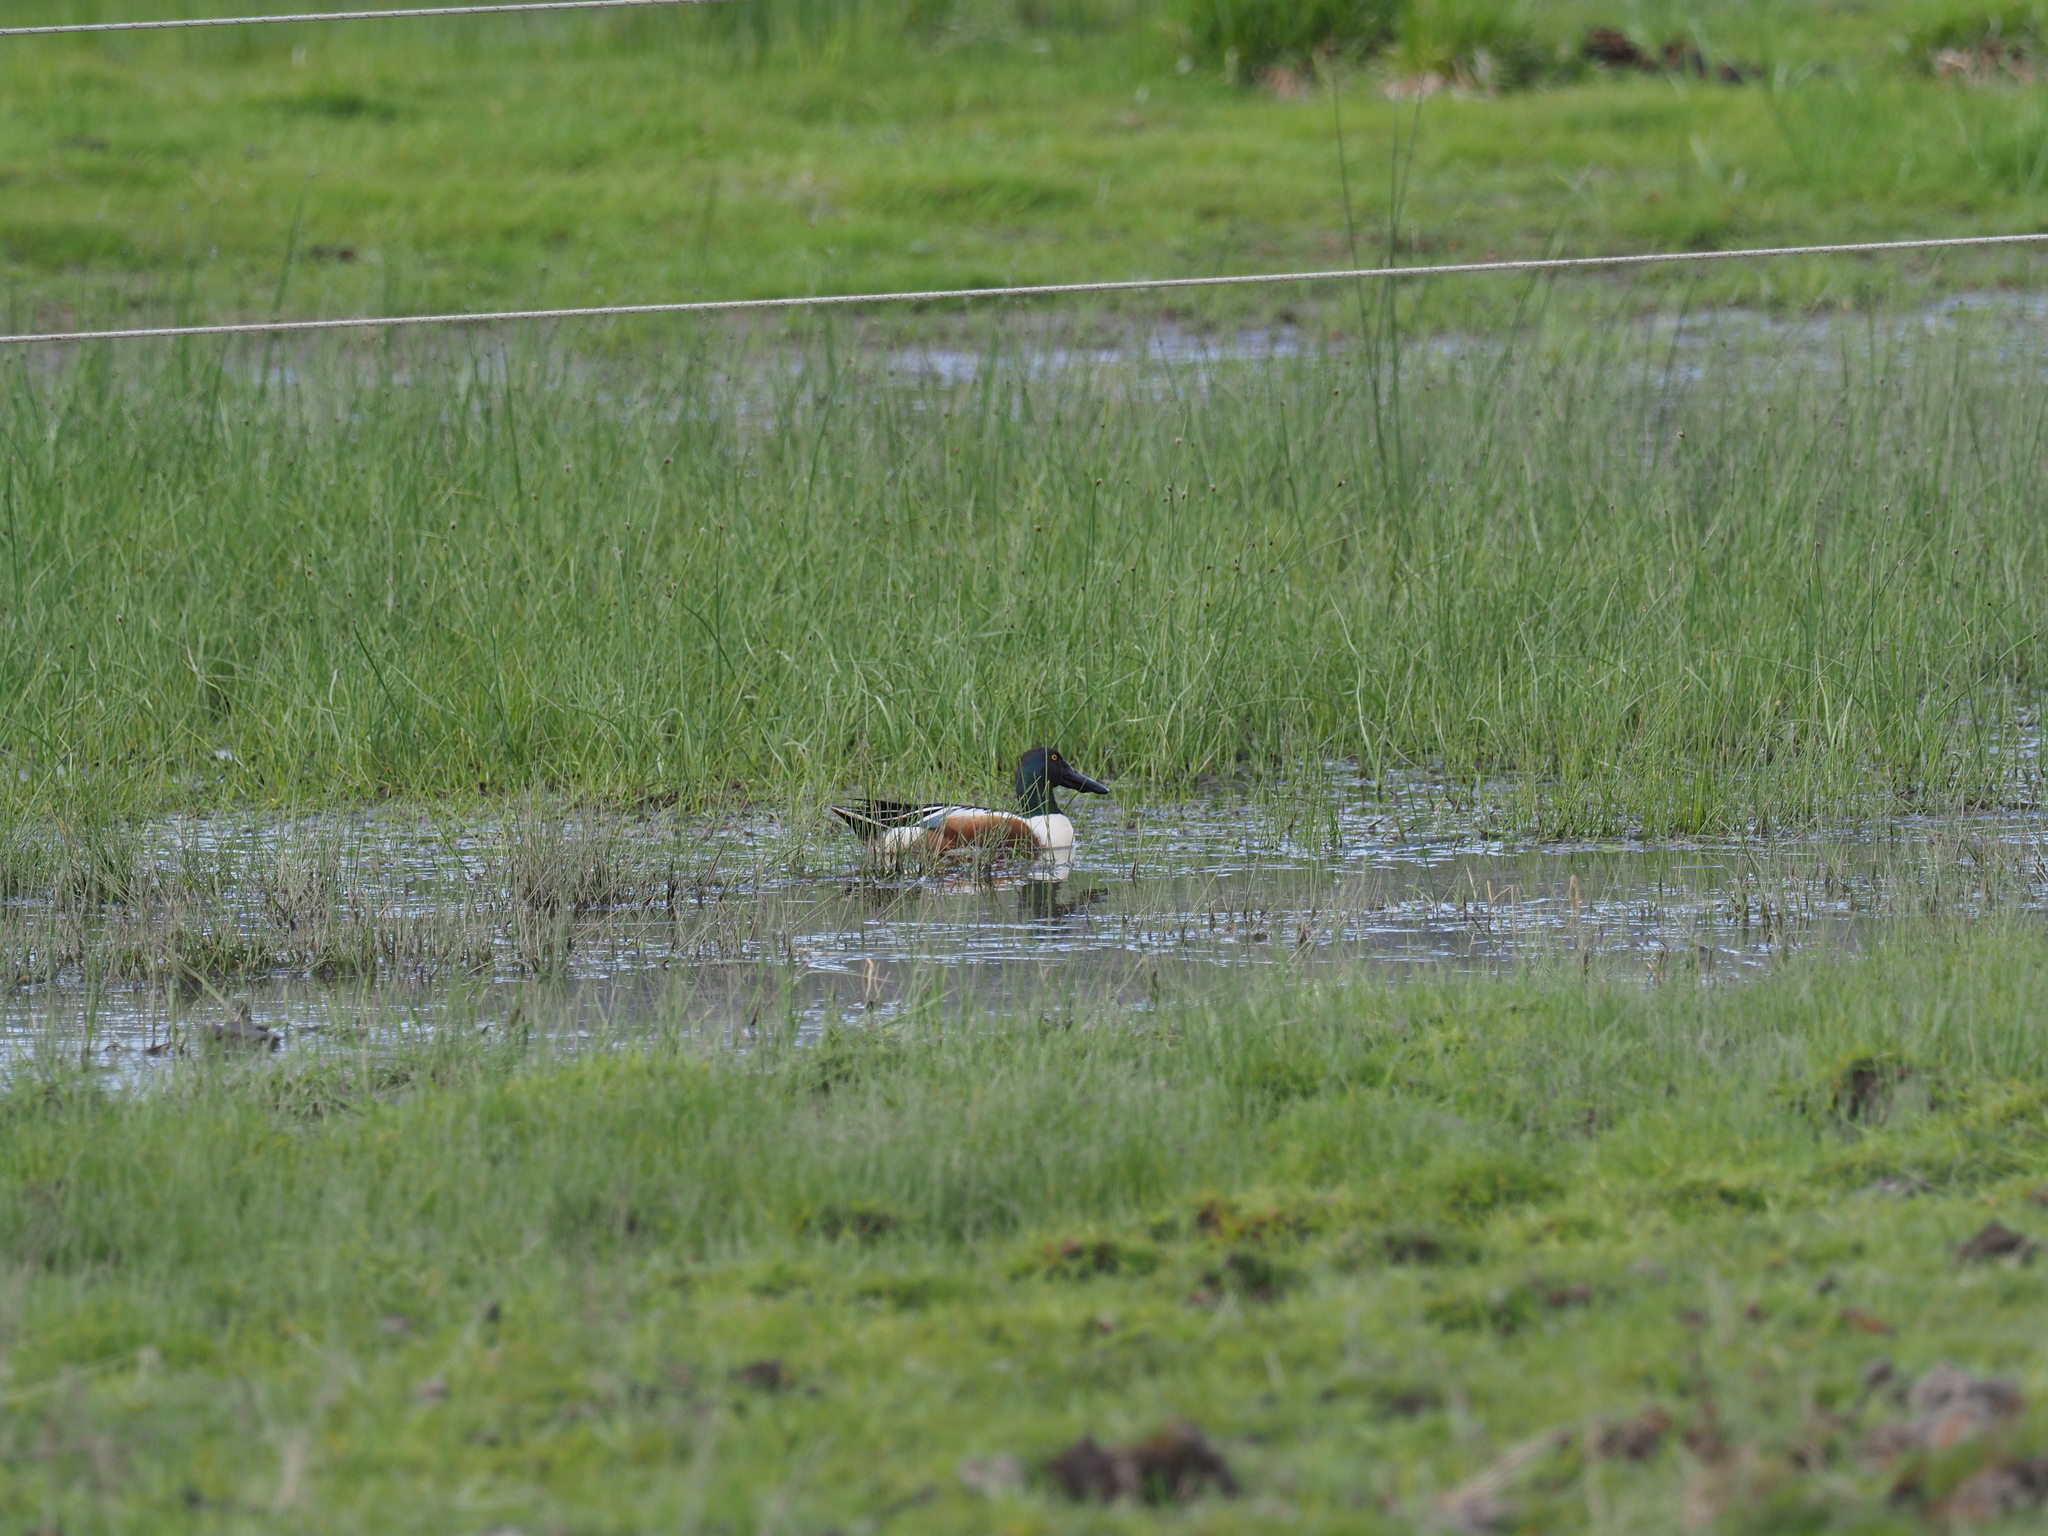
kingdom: Animalia
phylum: Chordata
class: Aves
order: Anseriformes
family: Anatidae
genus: Spatula
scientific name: Spatula clypeata
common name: Northern shoveler
